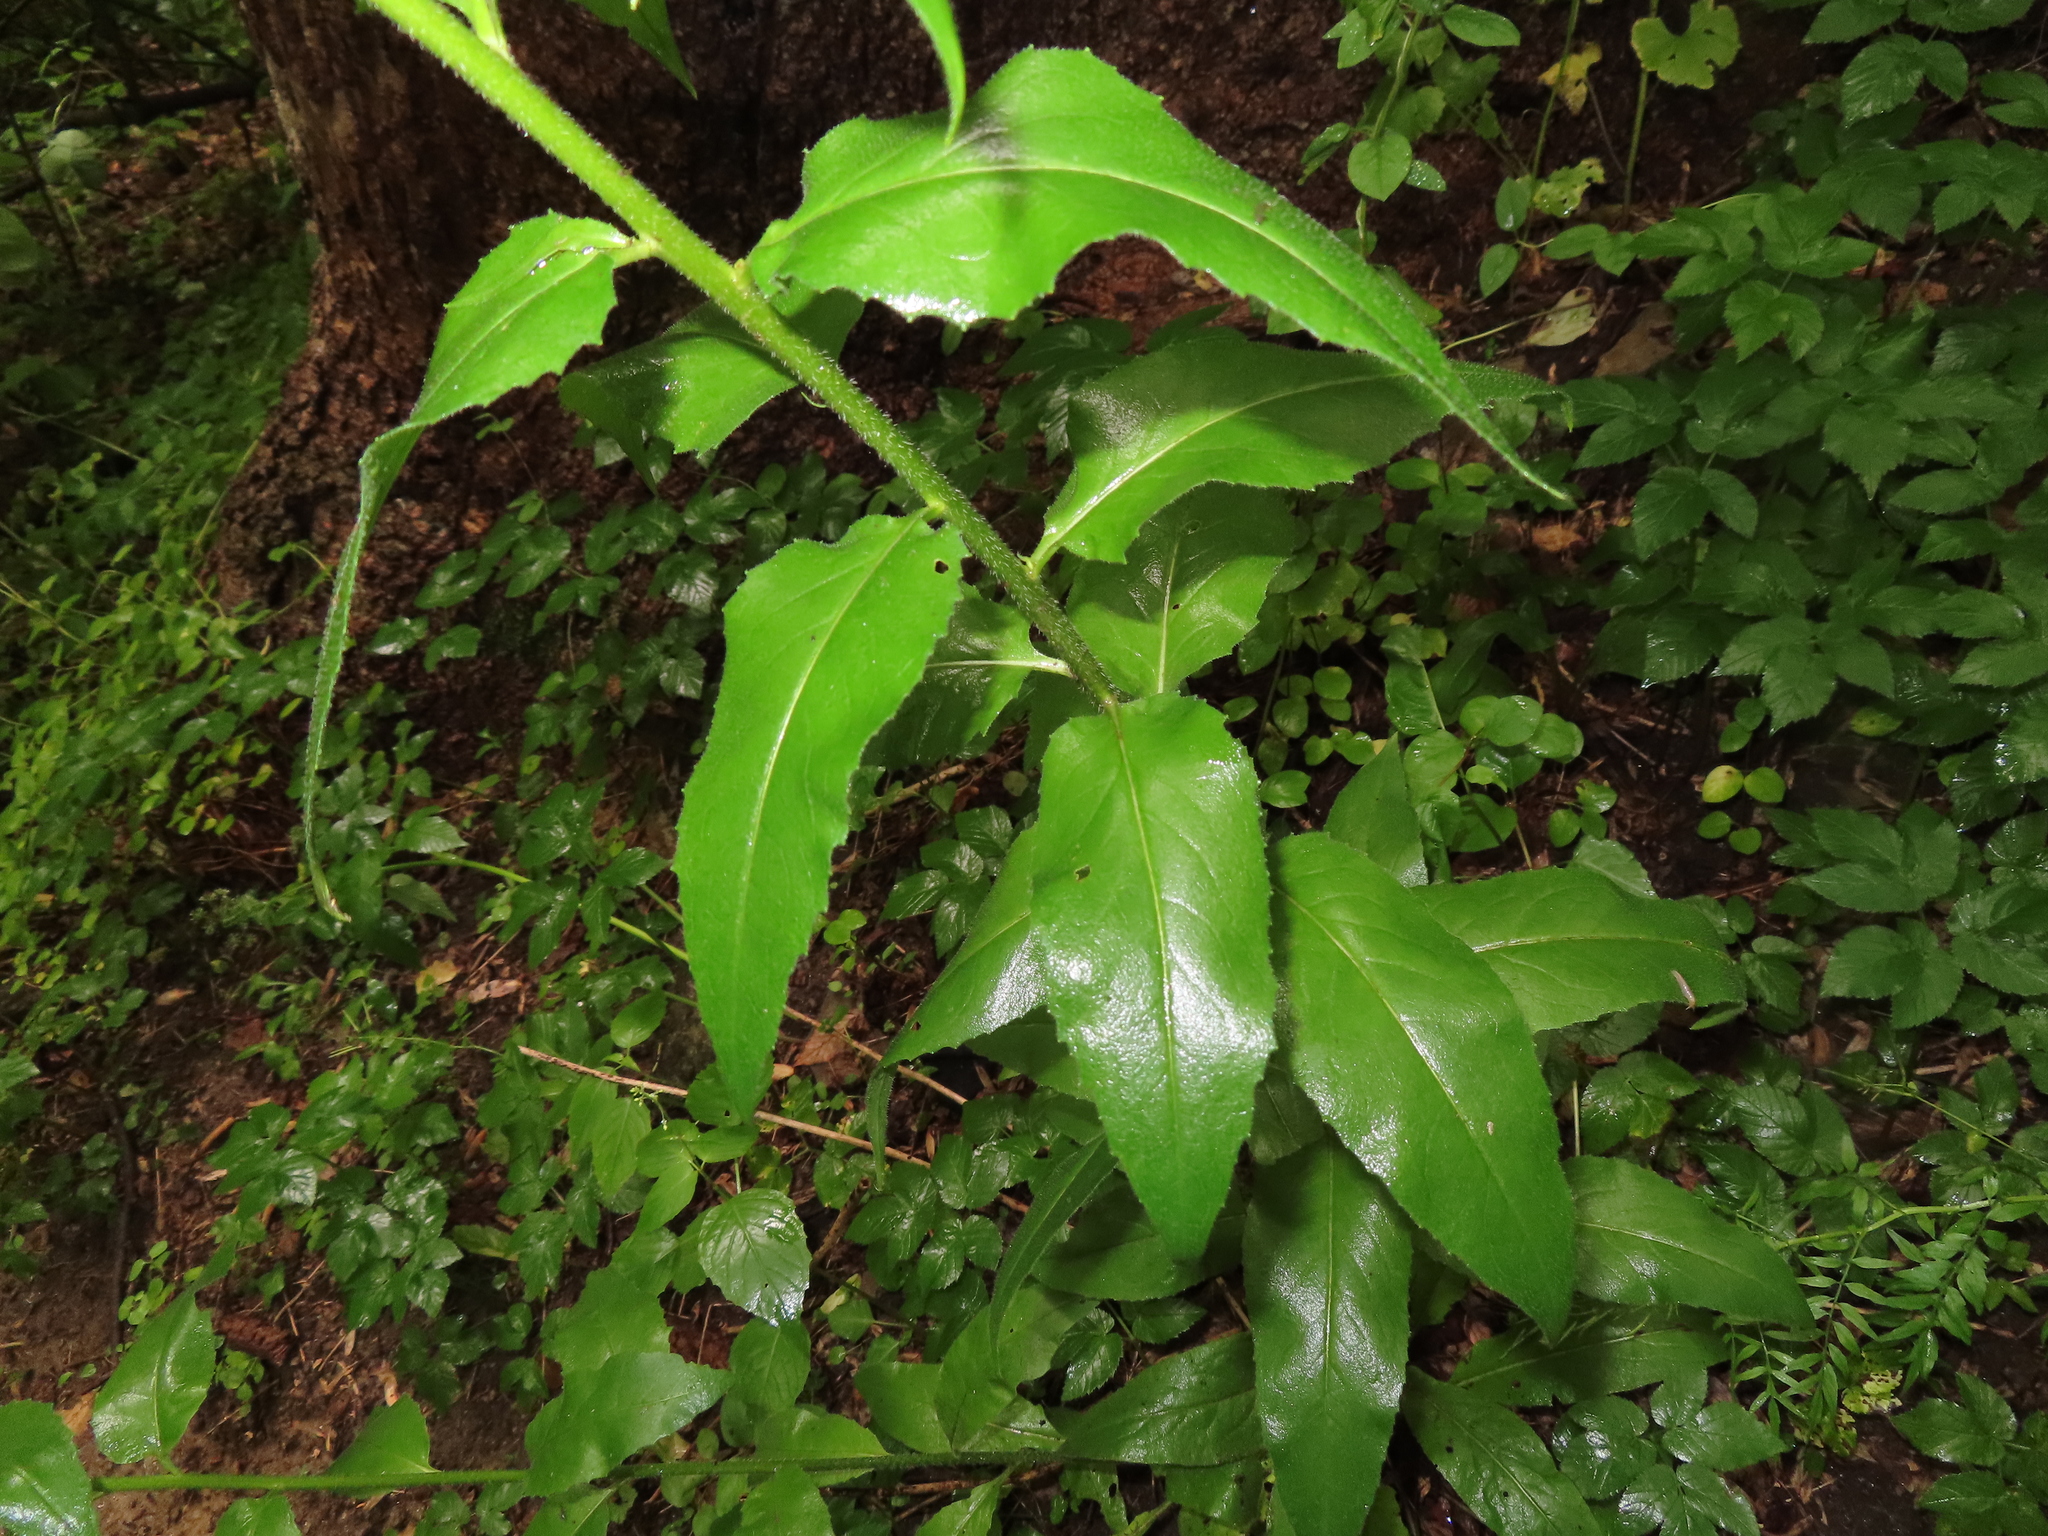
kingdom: Plantae
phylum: Tracheophyta
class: Magnoliopsida
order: Brassicales
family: Brassicaceae
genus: Hesperis
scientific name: Hesperis matronalis
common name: Dame's-violet
